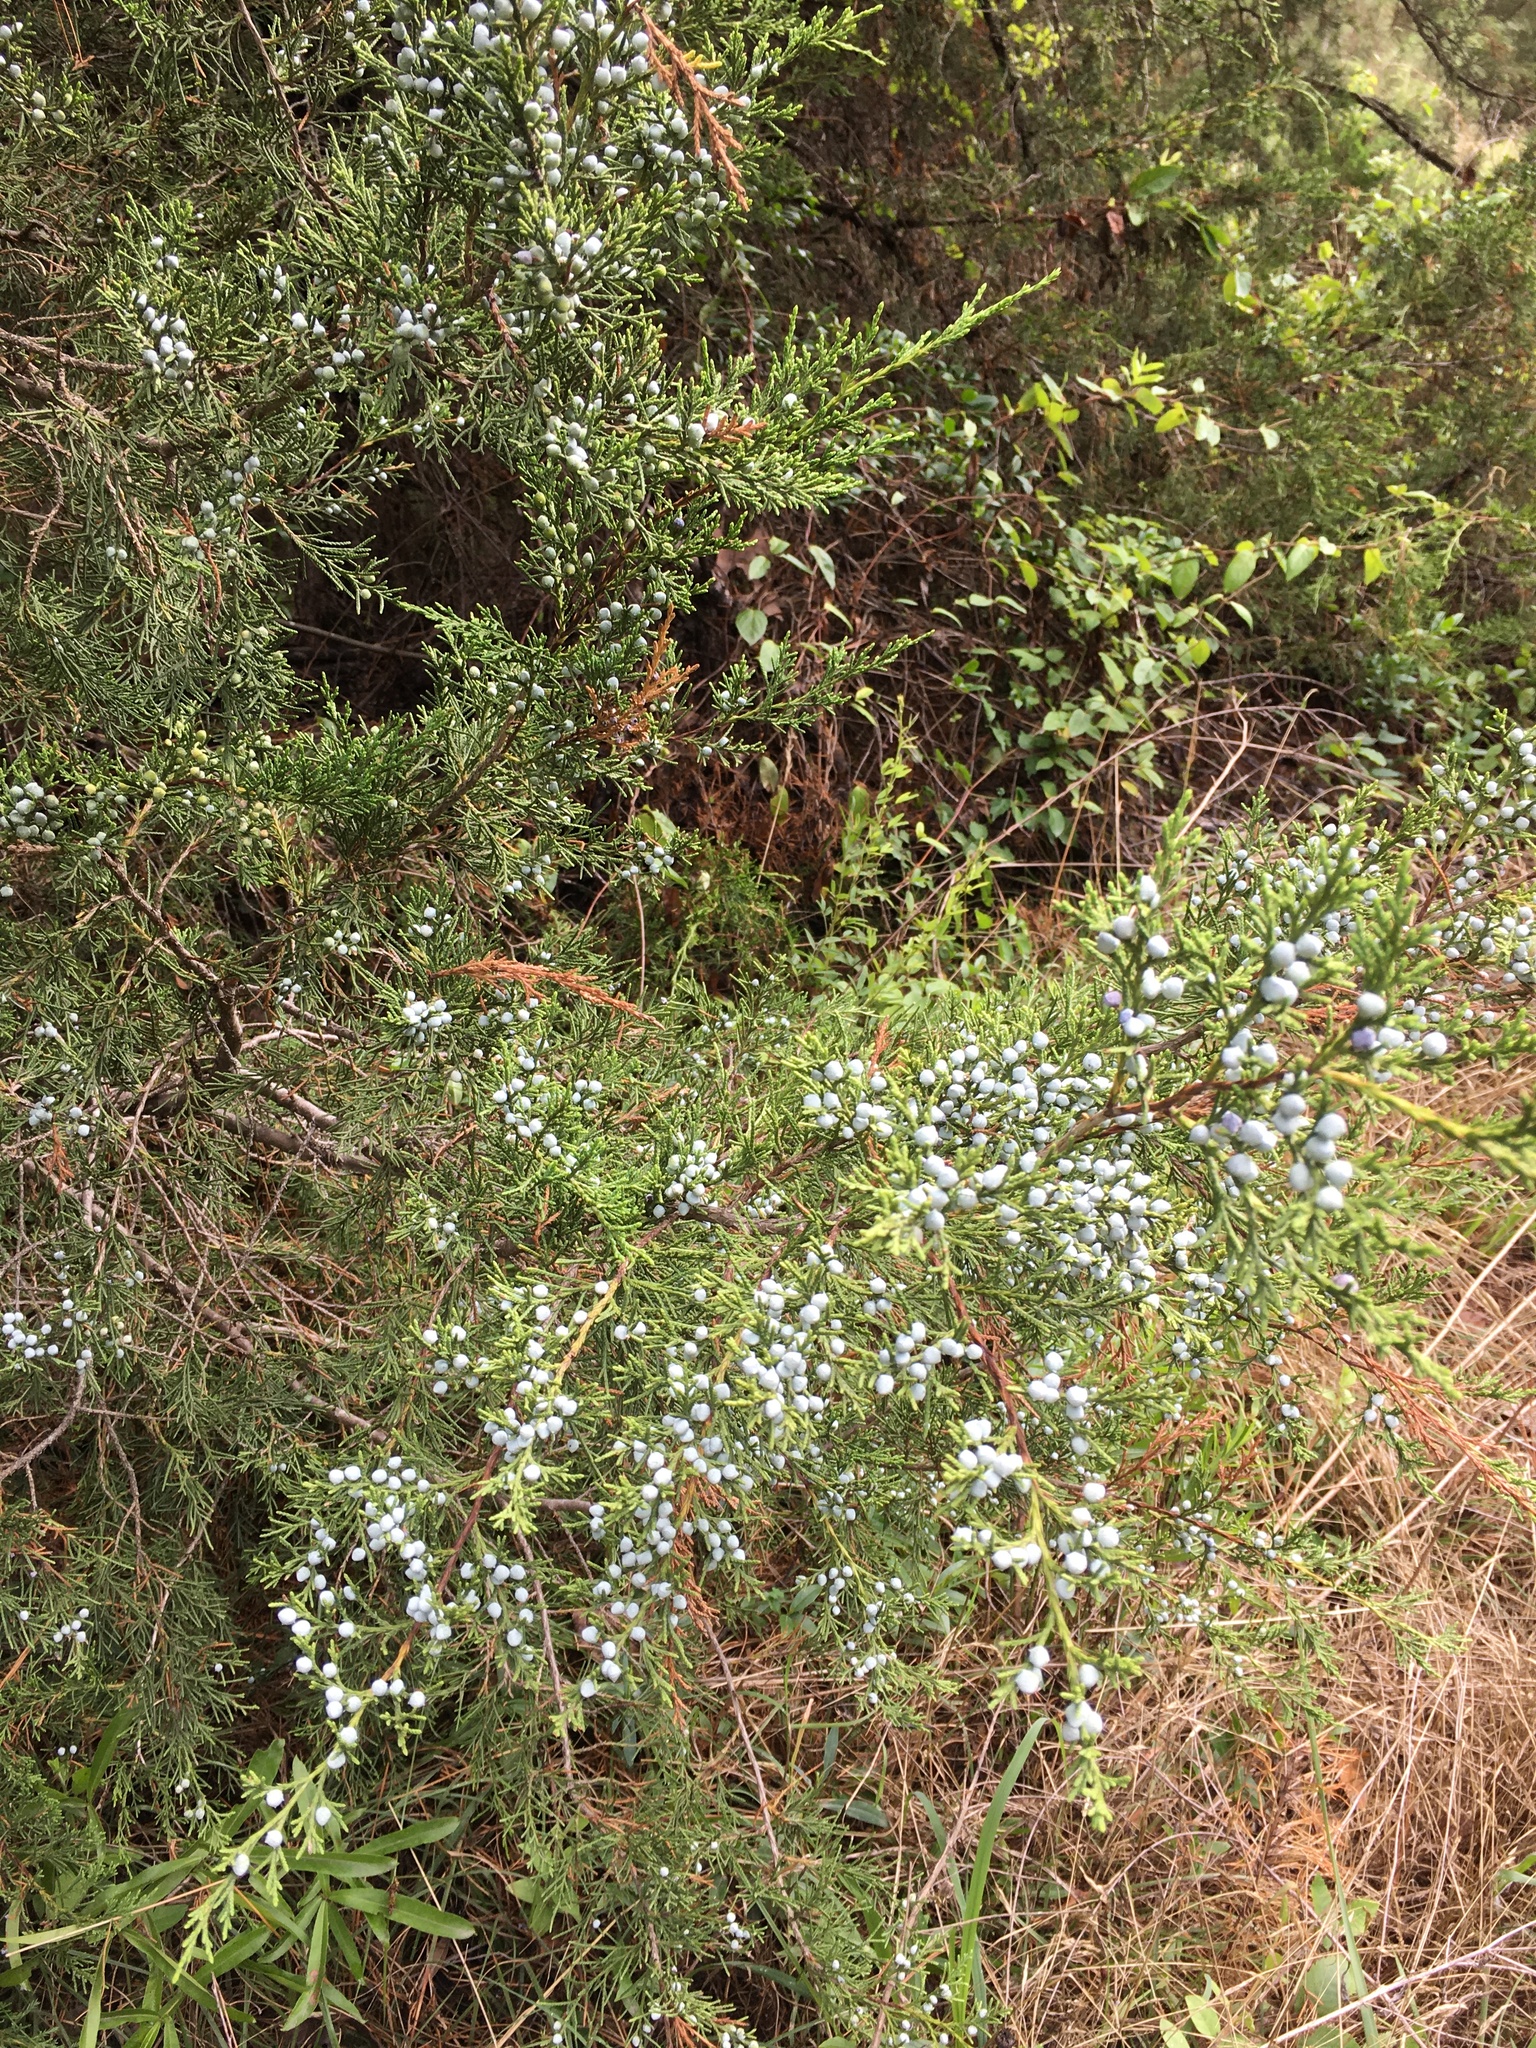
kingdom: Plantae
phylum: Tracheophyta
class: Pinopsida
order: Pinales
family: Cupressaceae
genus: Juniperus
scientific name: Juniperus virginiana
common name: Red juniper
